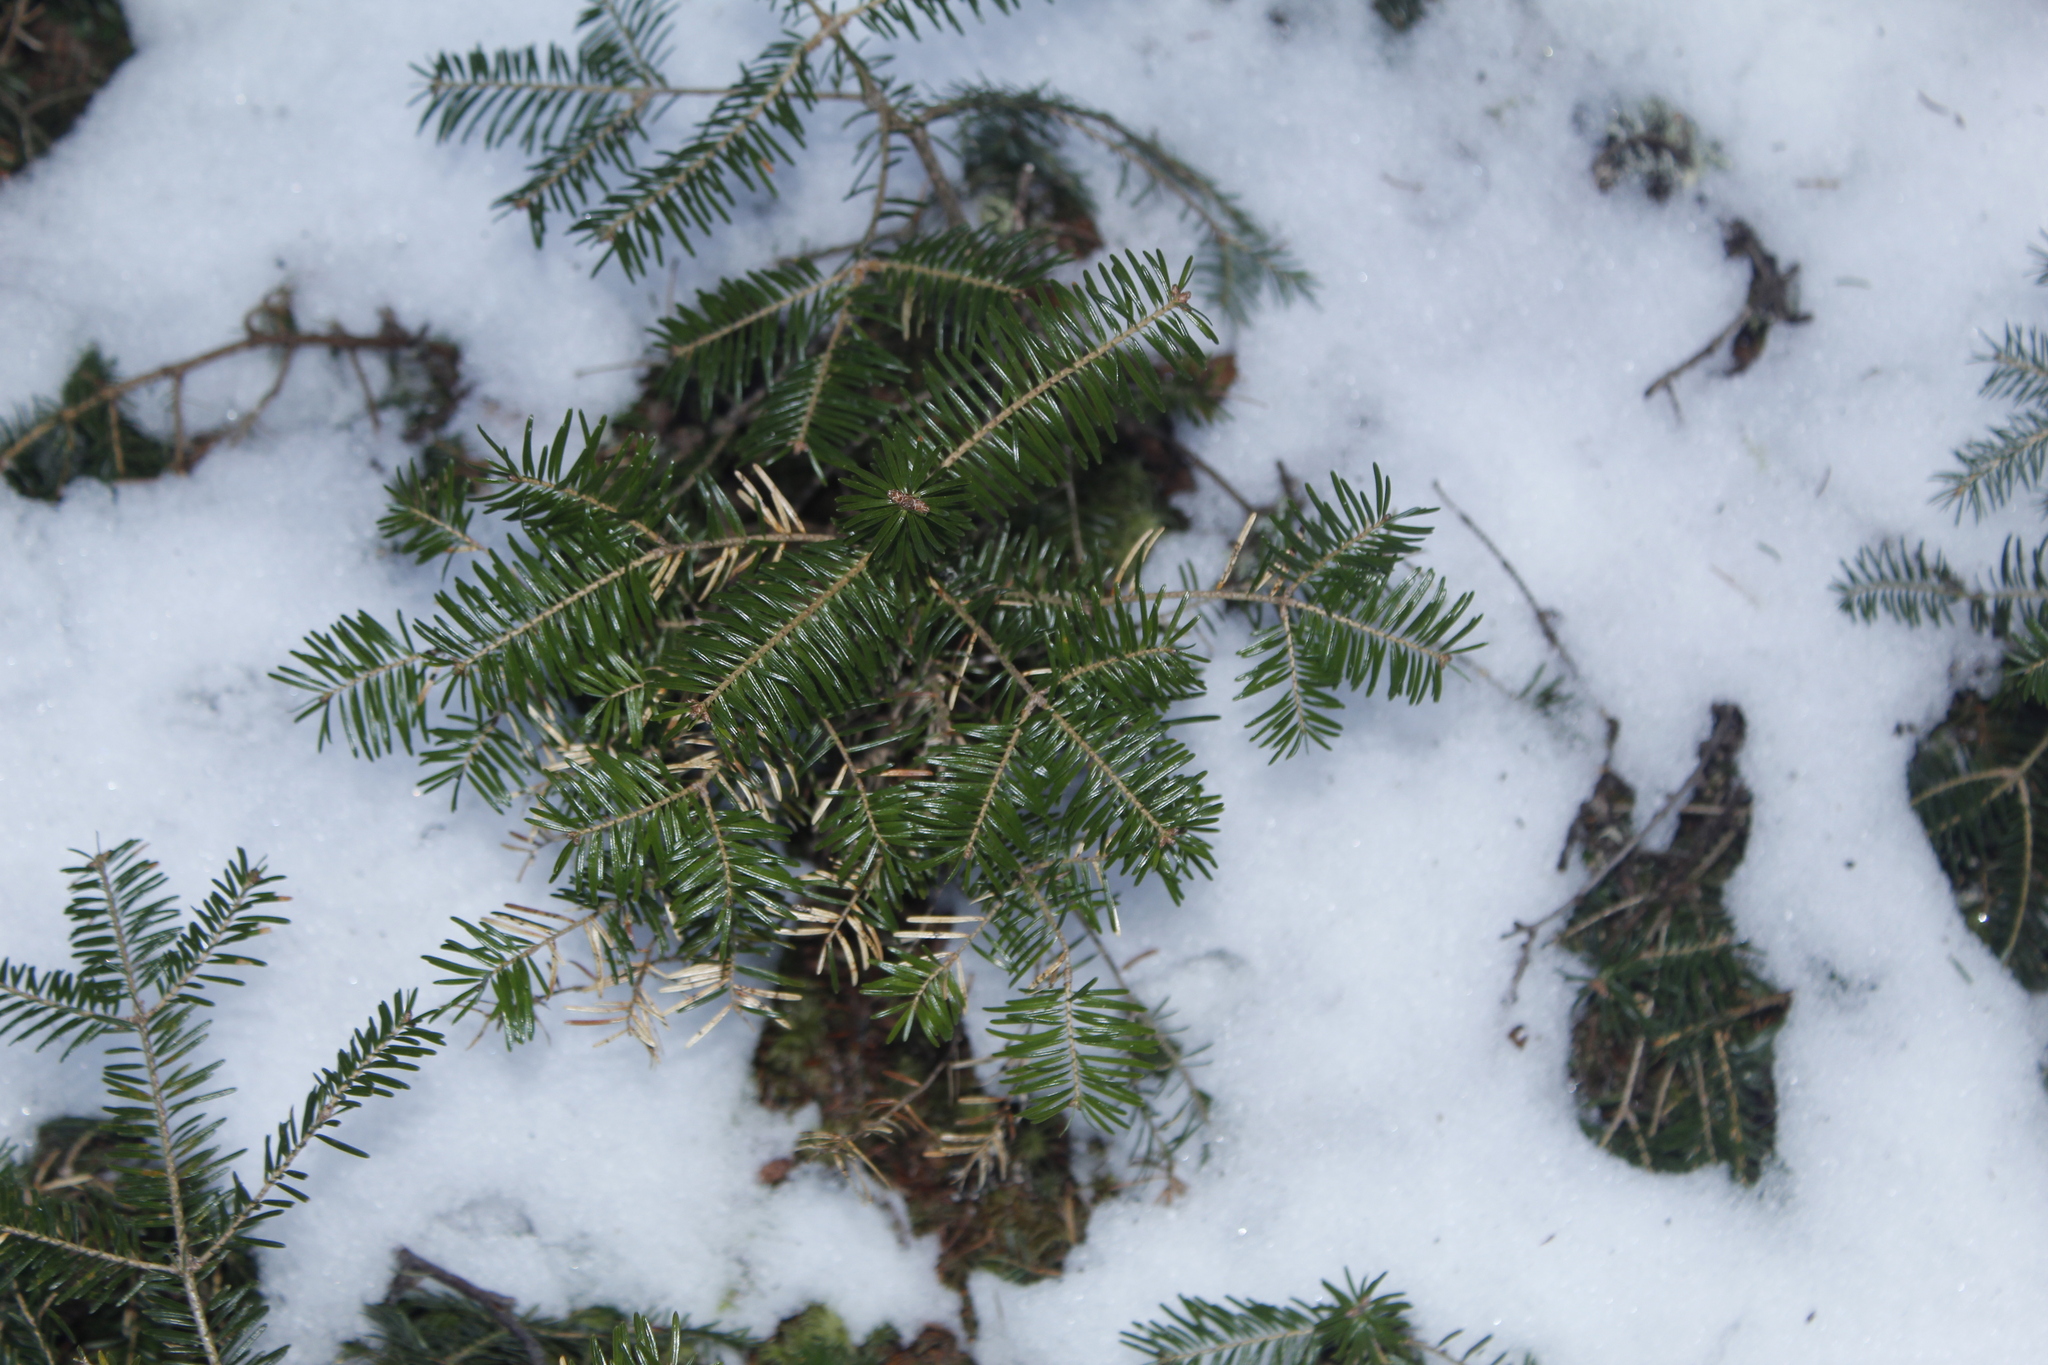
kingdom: Plantae
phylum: Tracheophyta
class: Pinopsida
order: Pinales
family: Pinaceae
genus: Abies
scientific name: Abies balsamea
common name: Balsam fir
